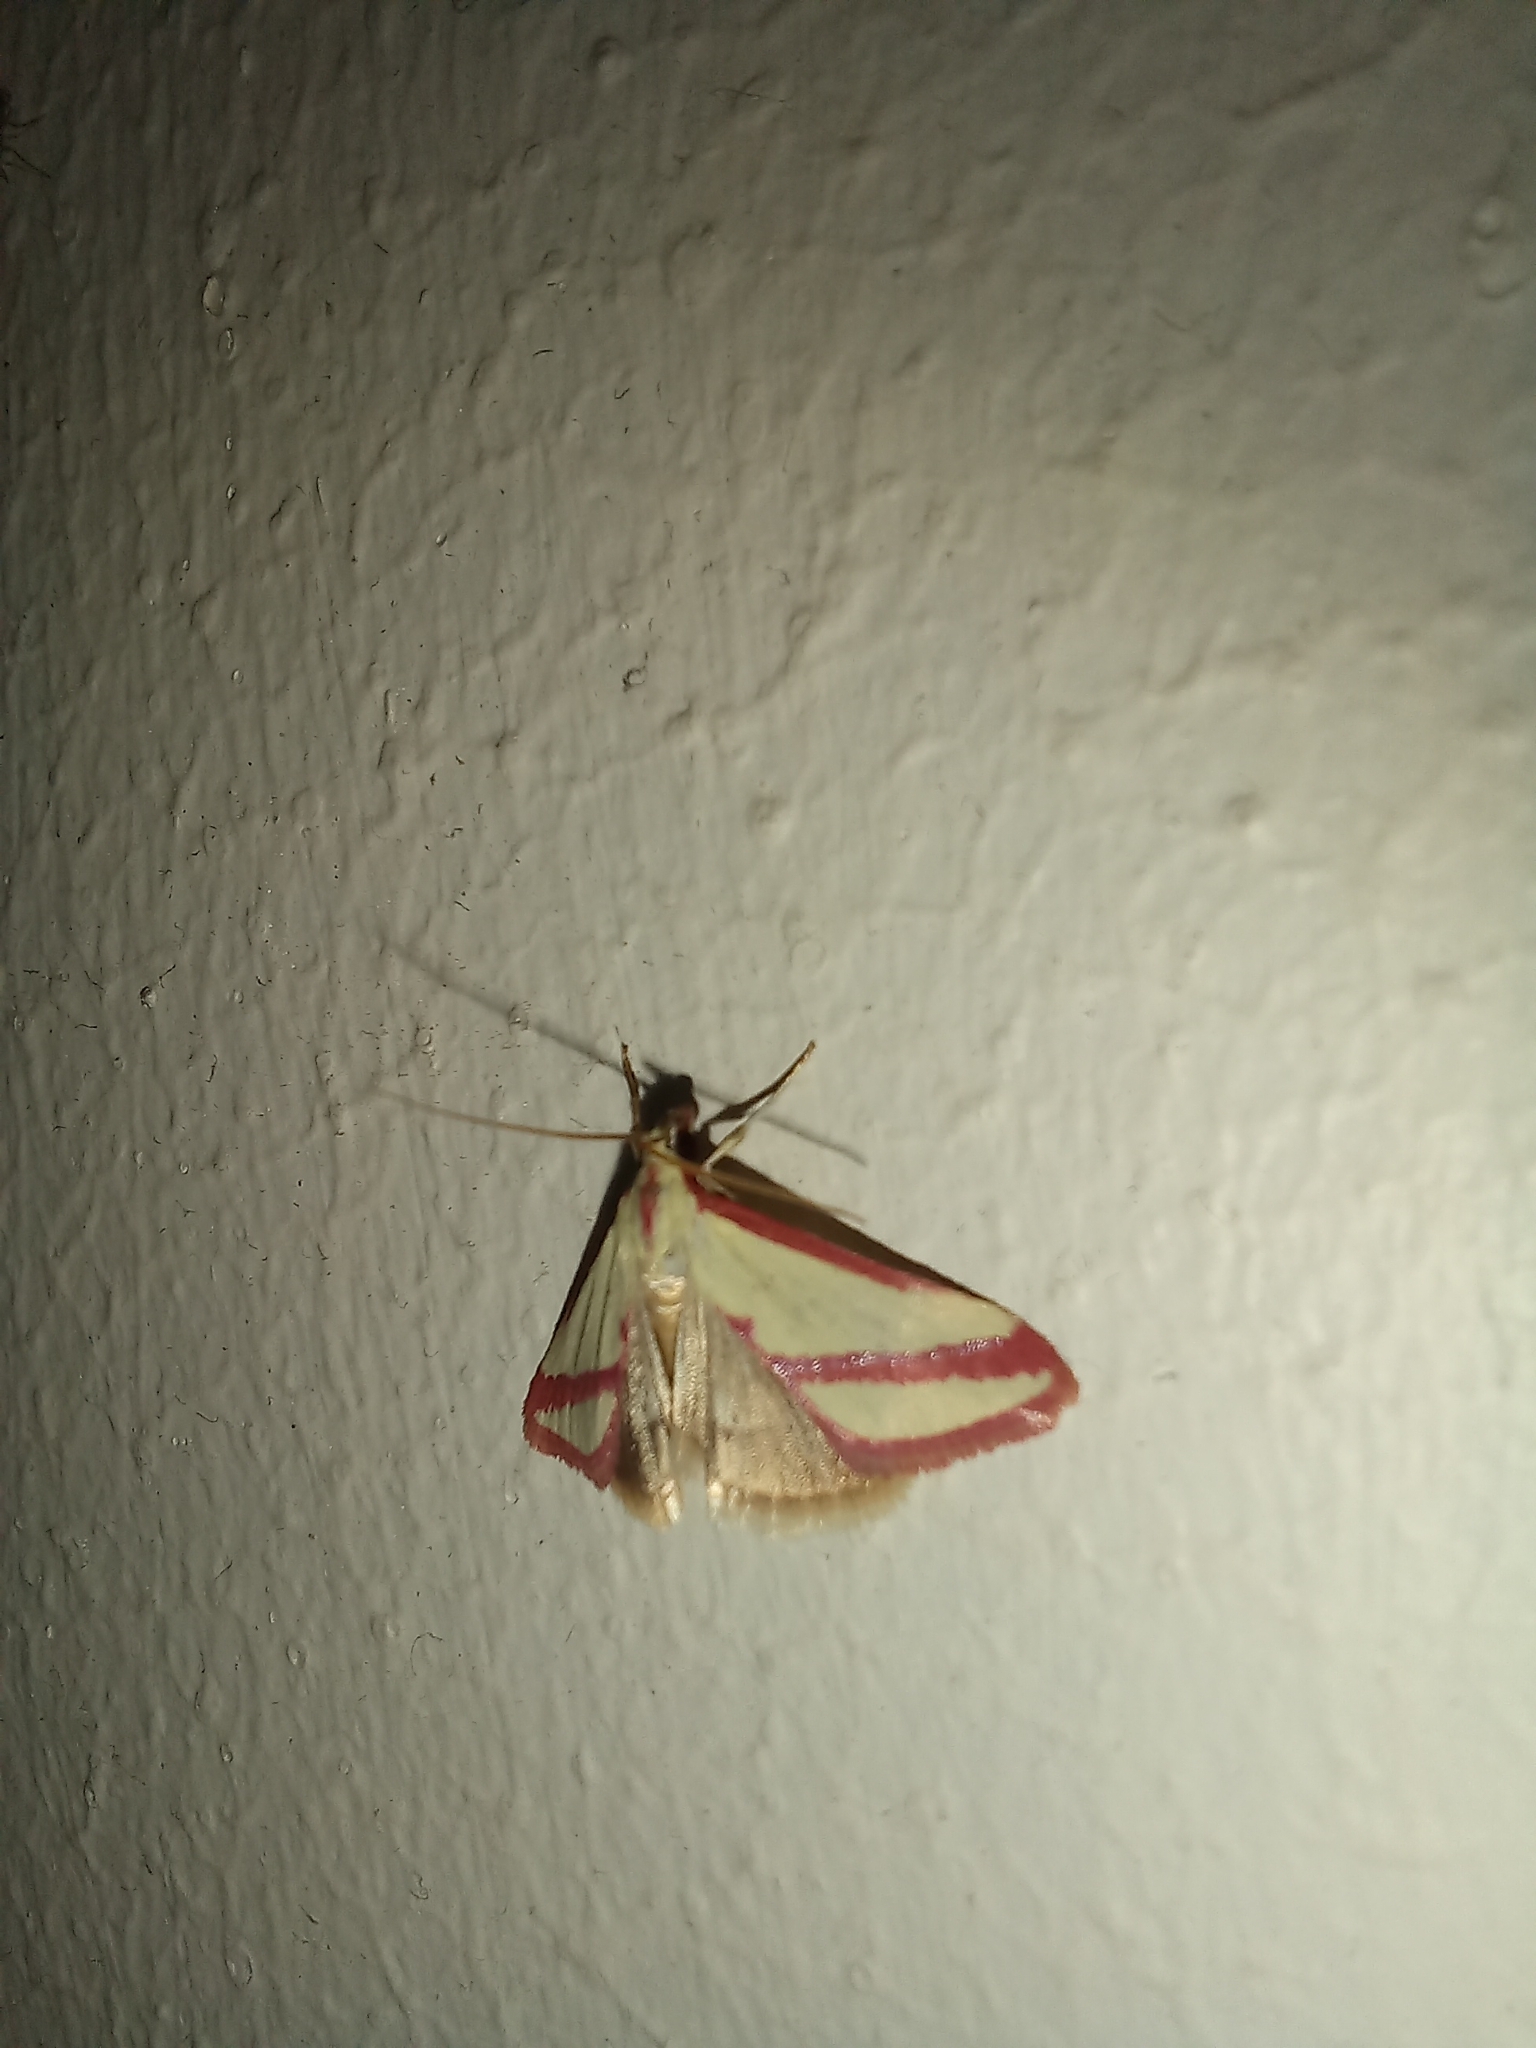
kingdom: Animalia
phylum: Arthropoda
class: Insecta
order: Lepidoptera
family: Crambidae
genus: Tegostoma
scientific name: Tegostoma florilegaria
